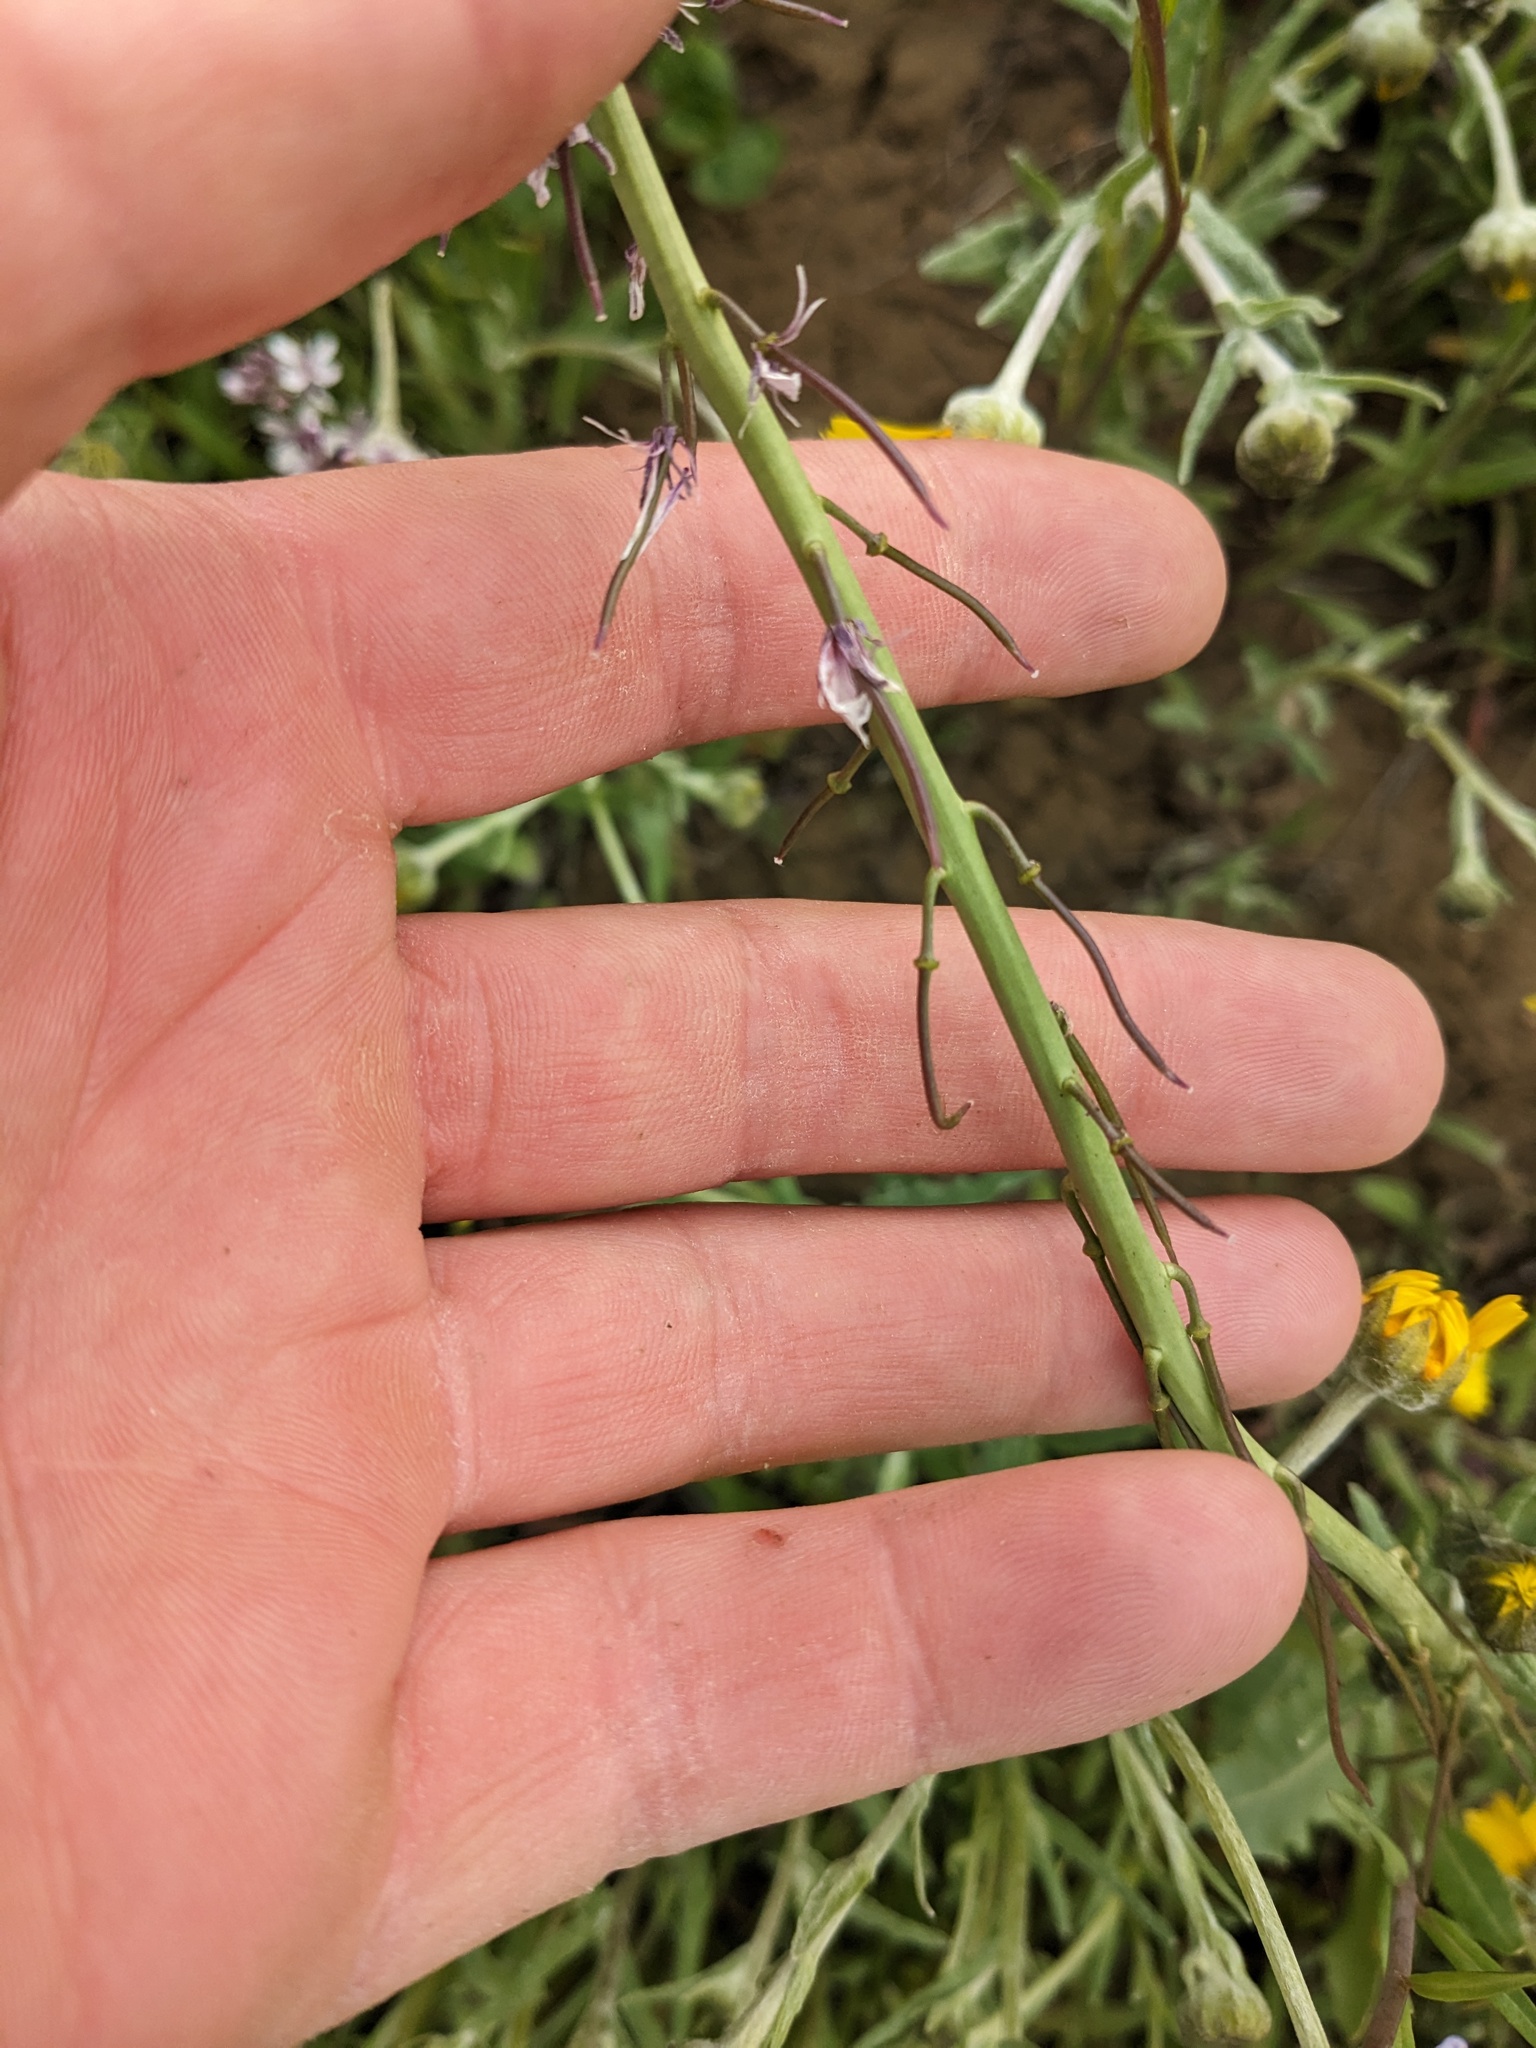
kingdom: Plantae
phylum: Tracheophyta
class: Magnoliopsida
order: Brassicales
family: Brassicaceae
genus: Streptanthus
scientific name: Streptanthus anceps
